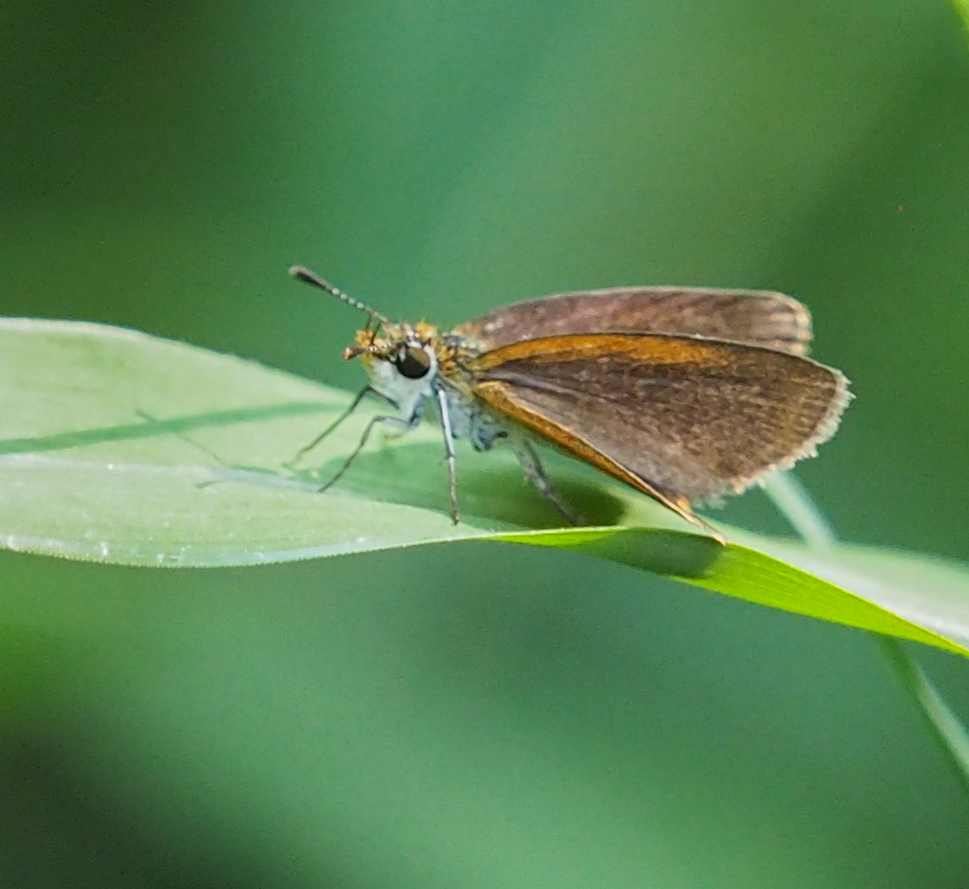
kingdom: Animalia
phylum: Arthropoda
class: Insecta
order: Lepidoptera
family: Hesperiidae
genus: Ancyloxypha
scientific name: Ancyloxypha numitor
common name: Least skipper
